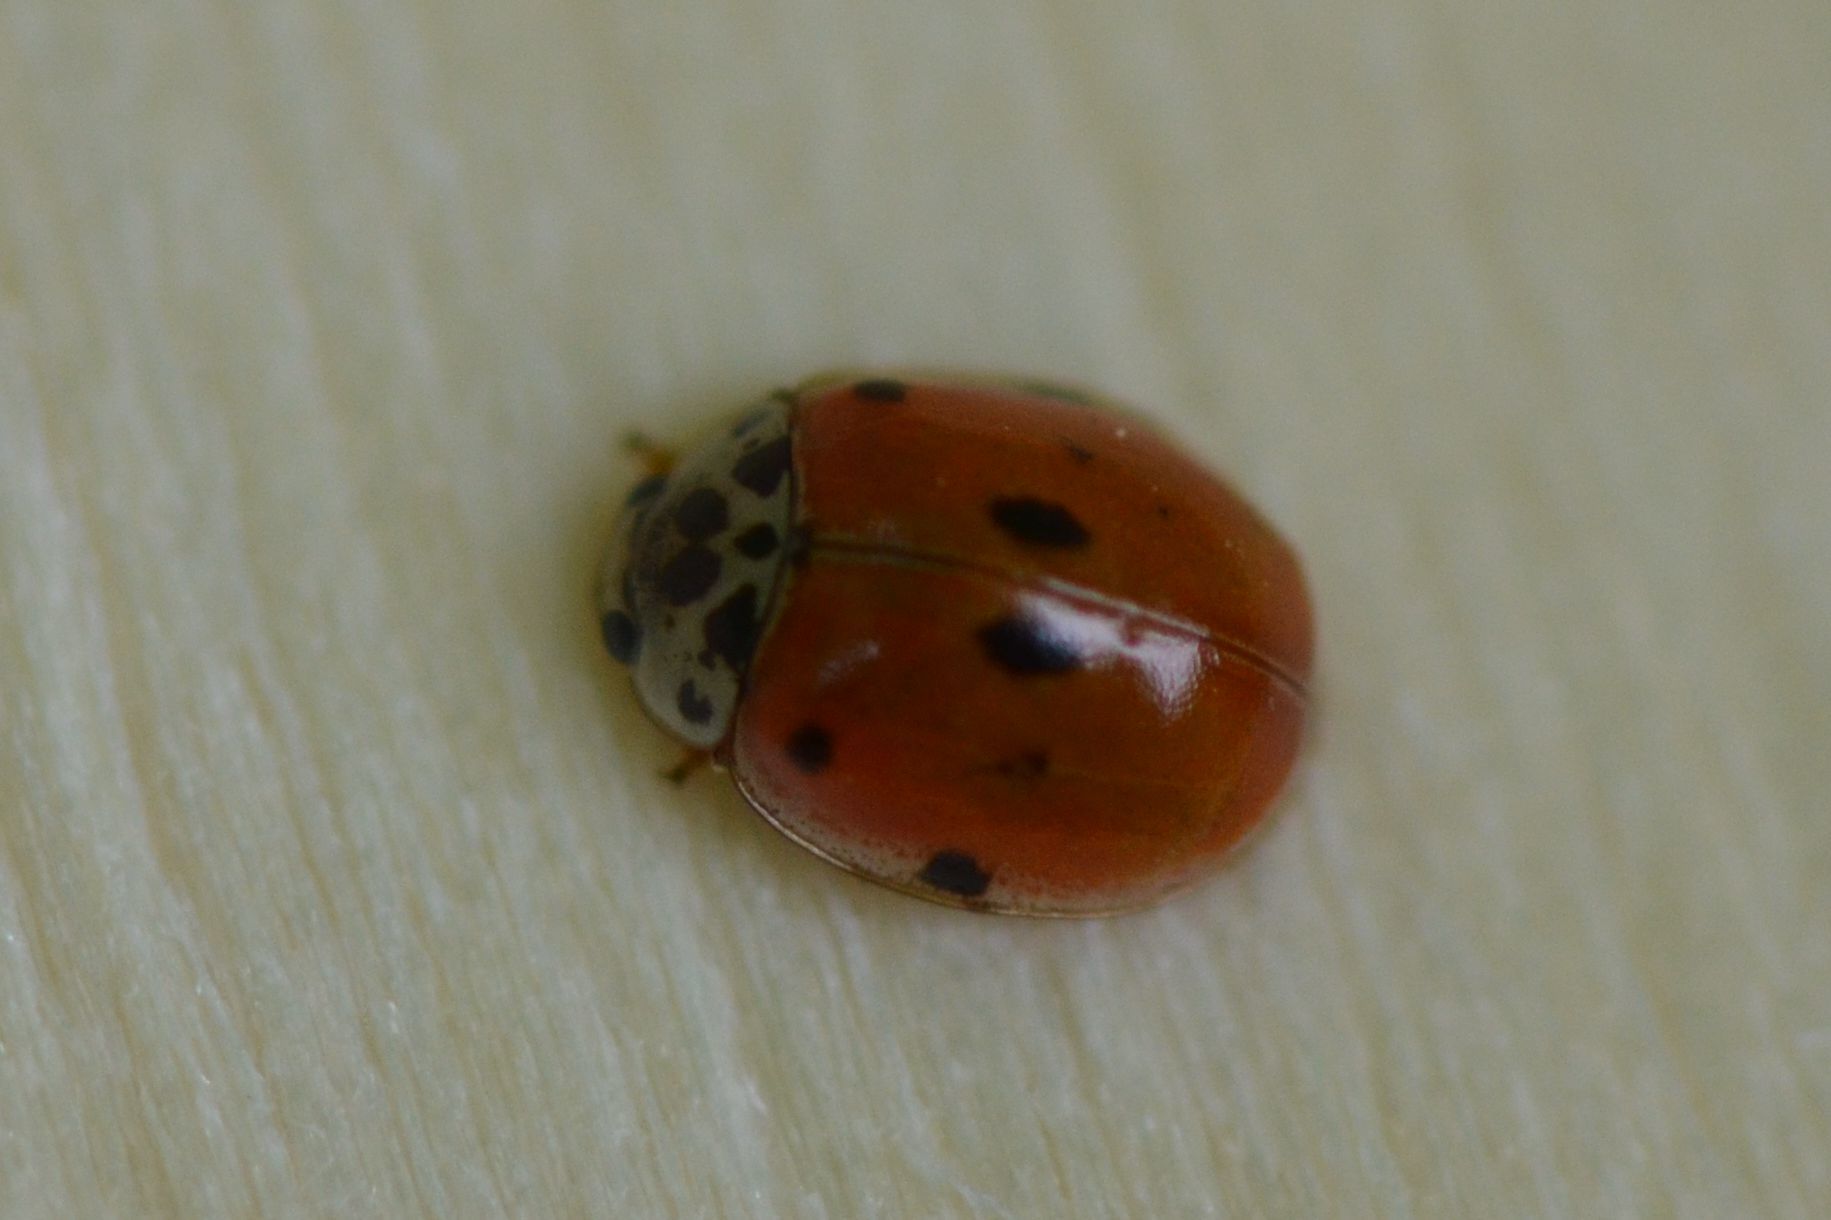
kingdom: Animalia
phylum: Arthropoda
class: Insecta
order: Coleoptera
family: Coccinellidae
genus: Adalia
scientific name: Adalia decempunctata
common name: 10-spot ladybird
